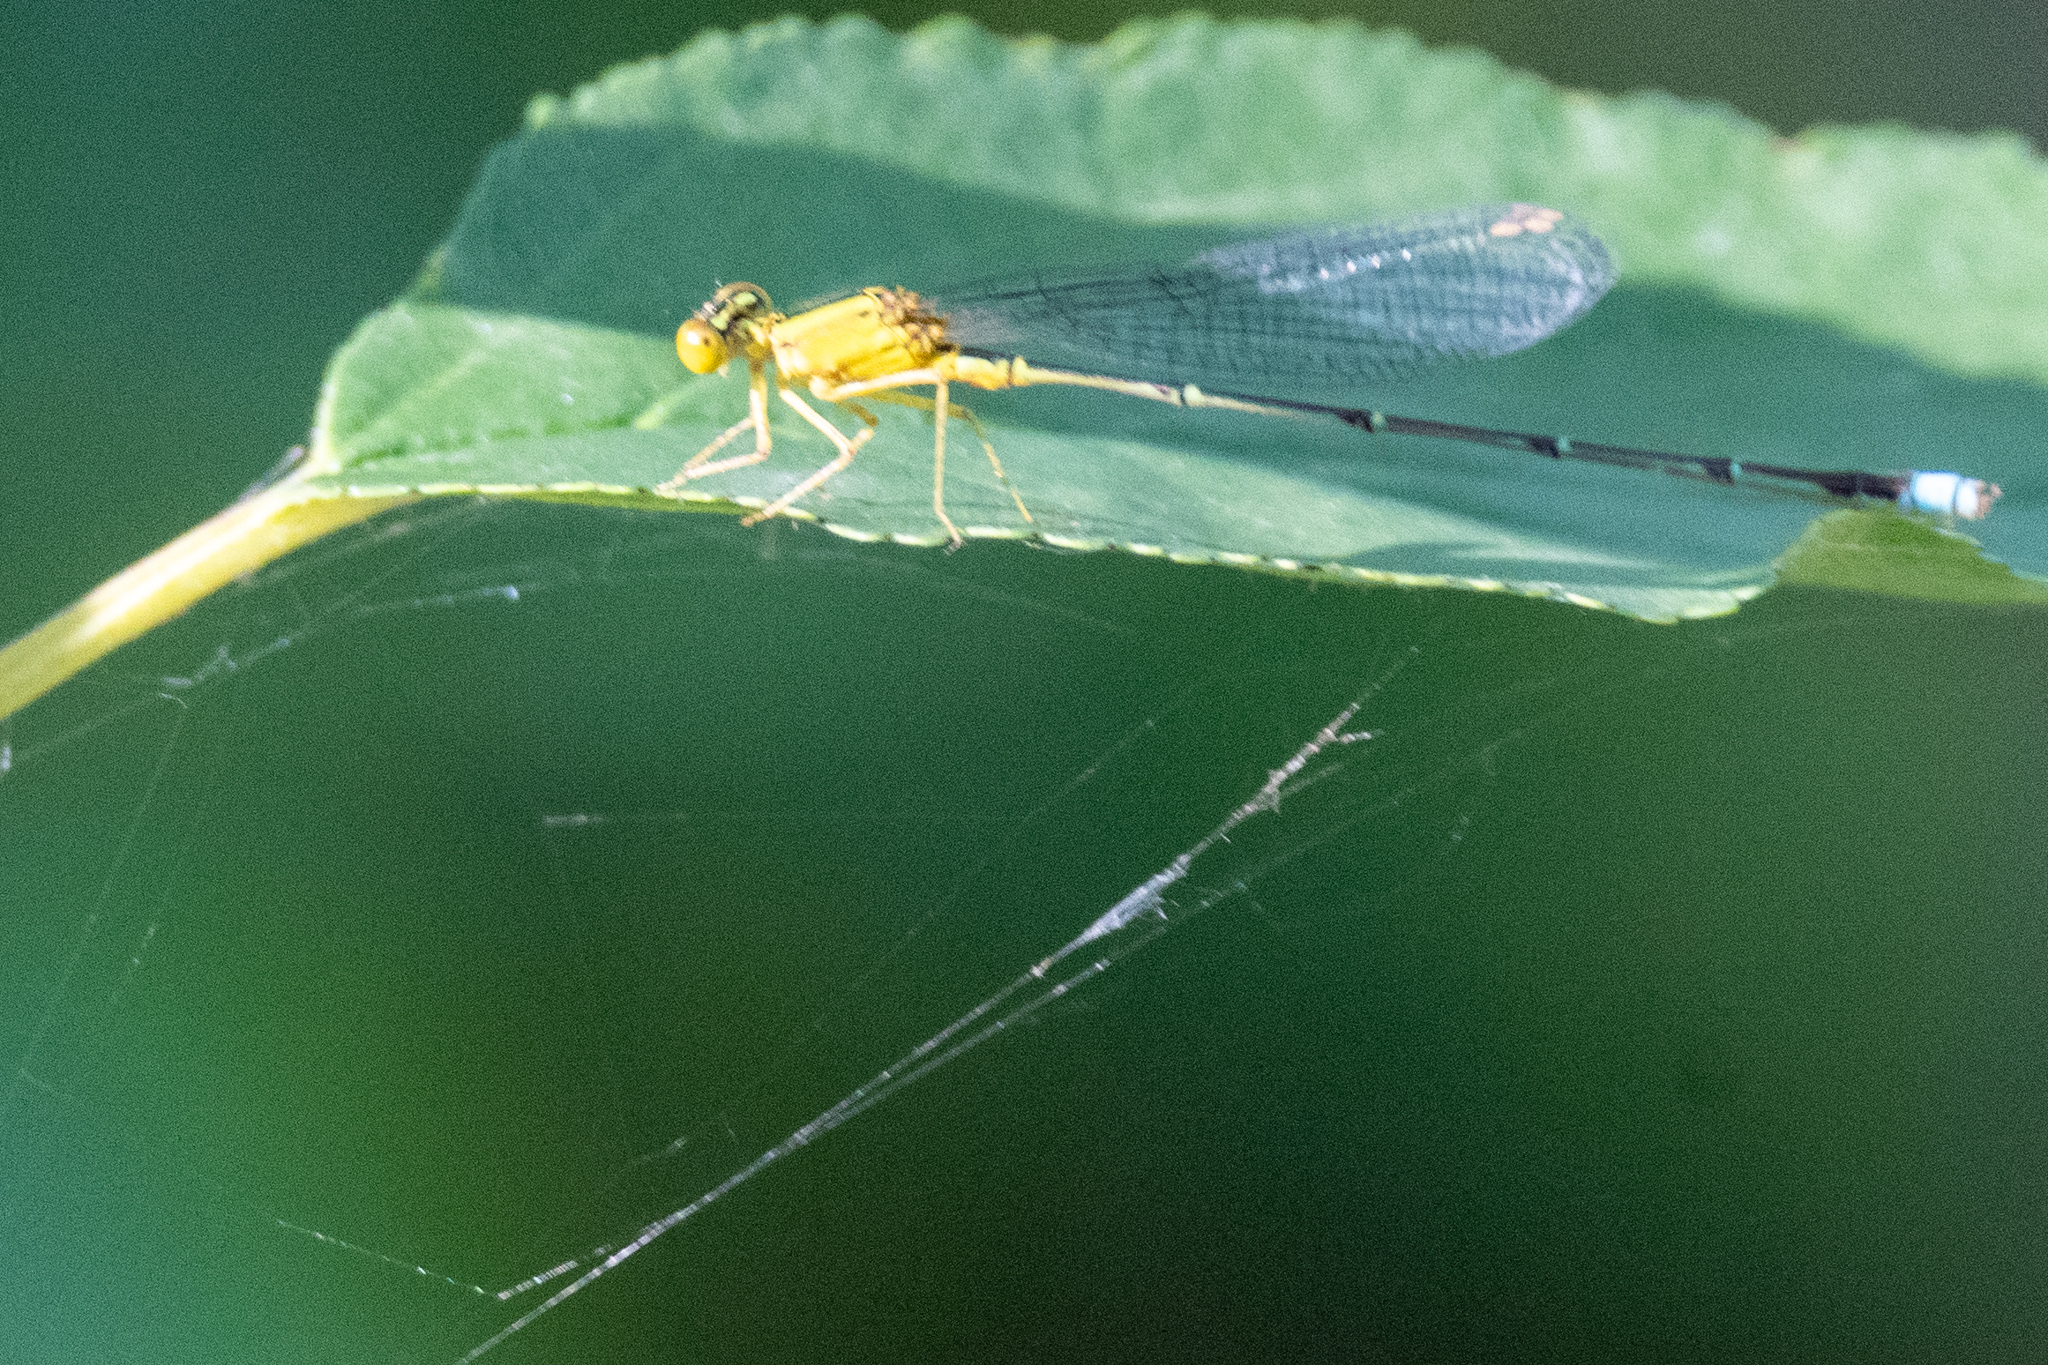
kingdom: Animalia
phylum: Arthropoda
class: Insecta
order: Odonata
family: Coenagrionidae
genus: Enallagma
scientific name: Enallagma vesperum
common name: Vesper bluet
